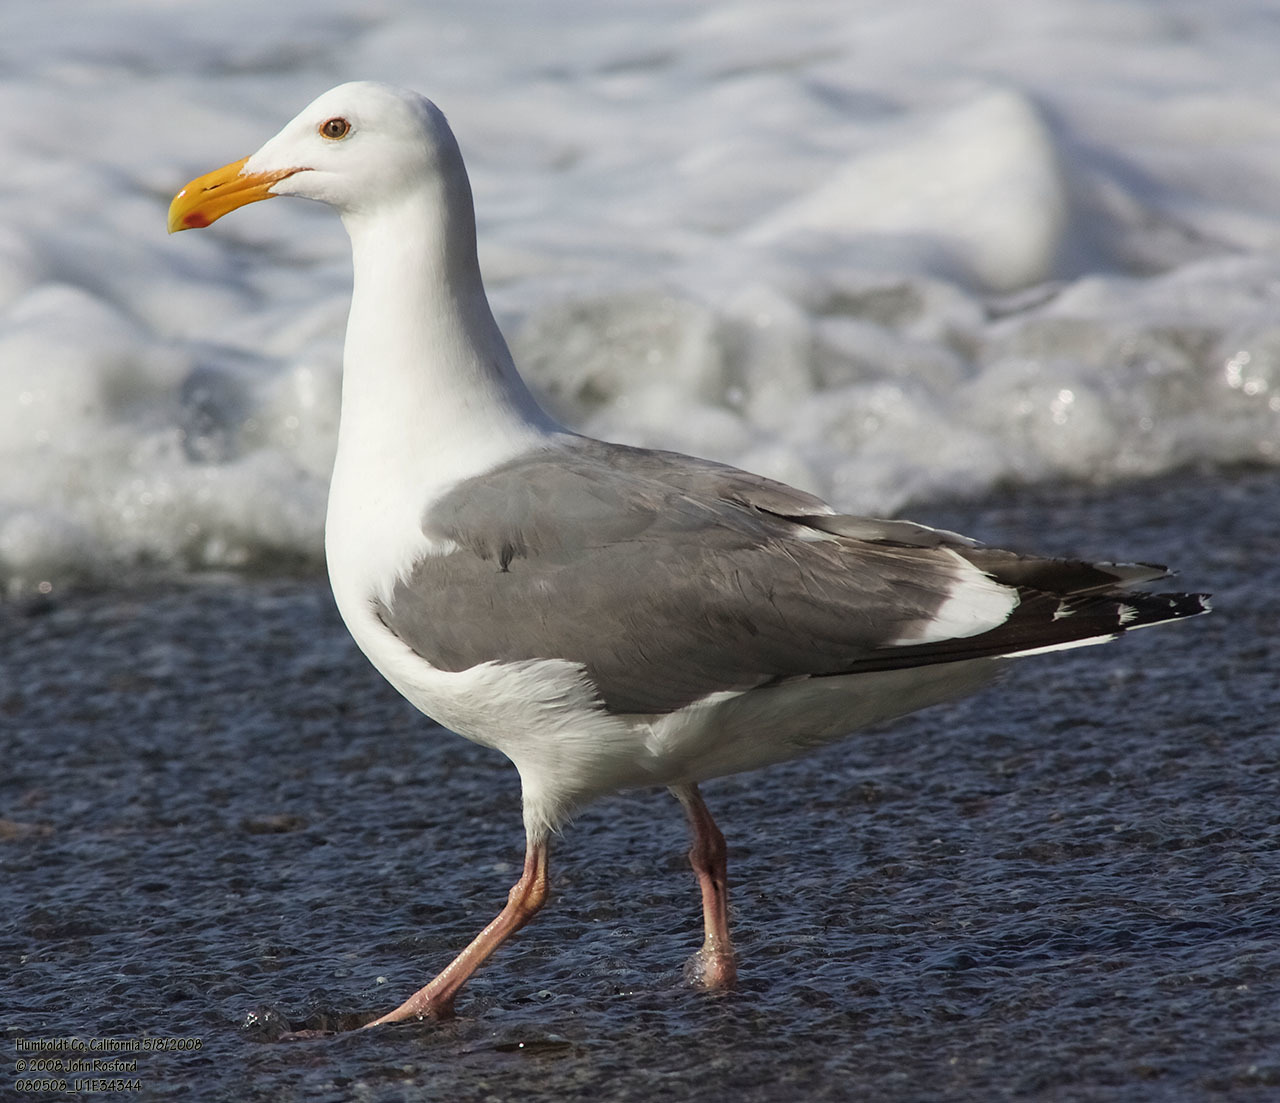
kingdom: Animalia
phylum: Chordata
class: Aves
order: Charadriiformes
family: Laridae
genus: Larus
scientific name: Larus occidentalis
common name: Western gull
